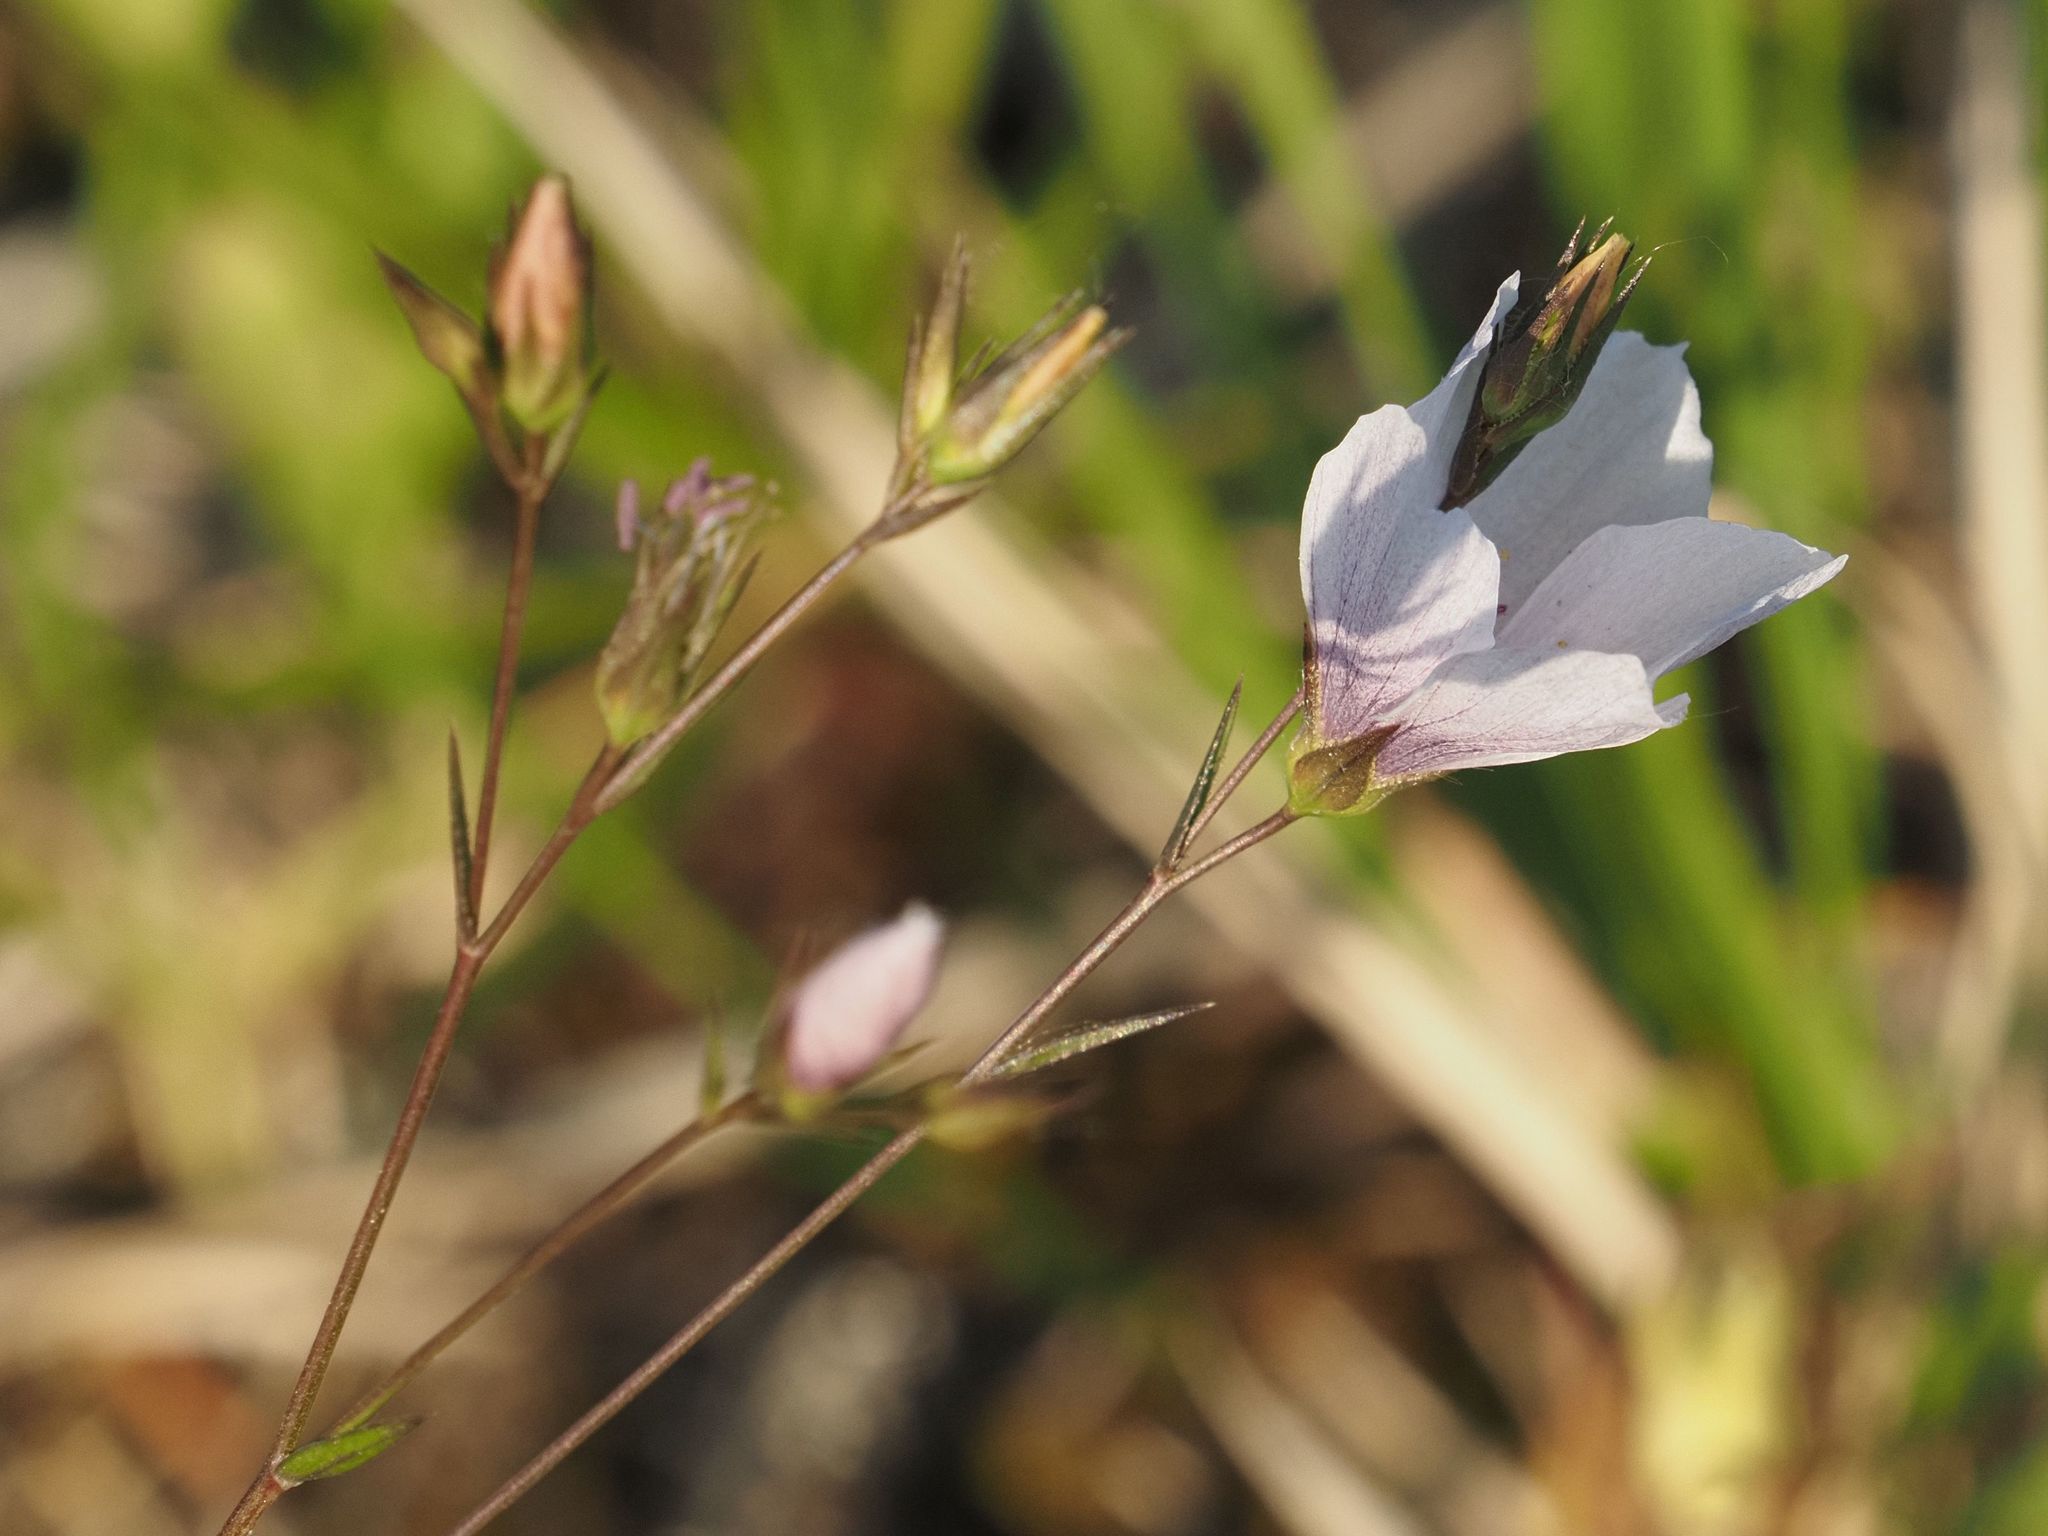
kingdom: Plantae
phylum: Tracheophyta
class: Magnoliopsida
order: Malpighiales
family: Linaceae
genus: Linum
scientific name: Linum tenuifolium
